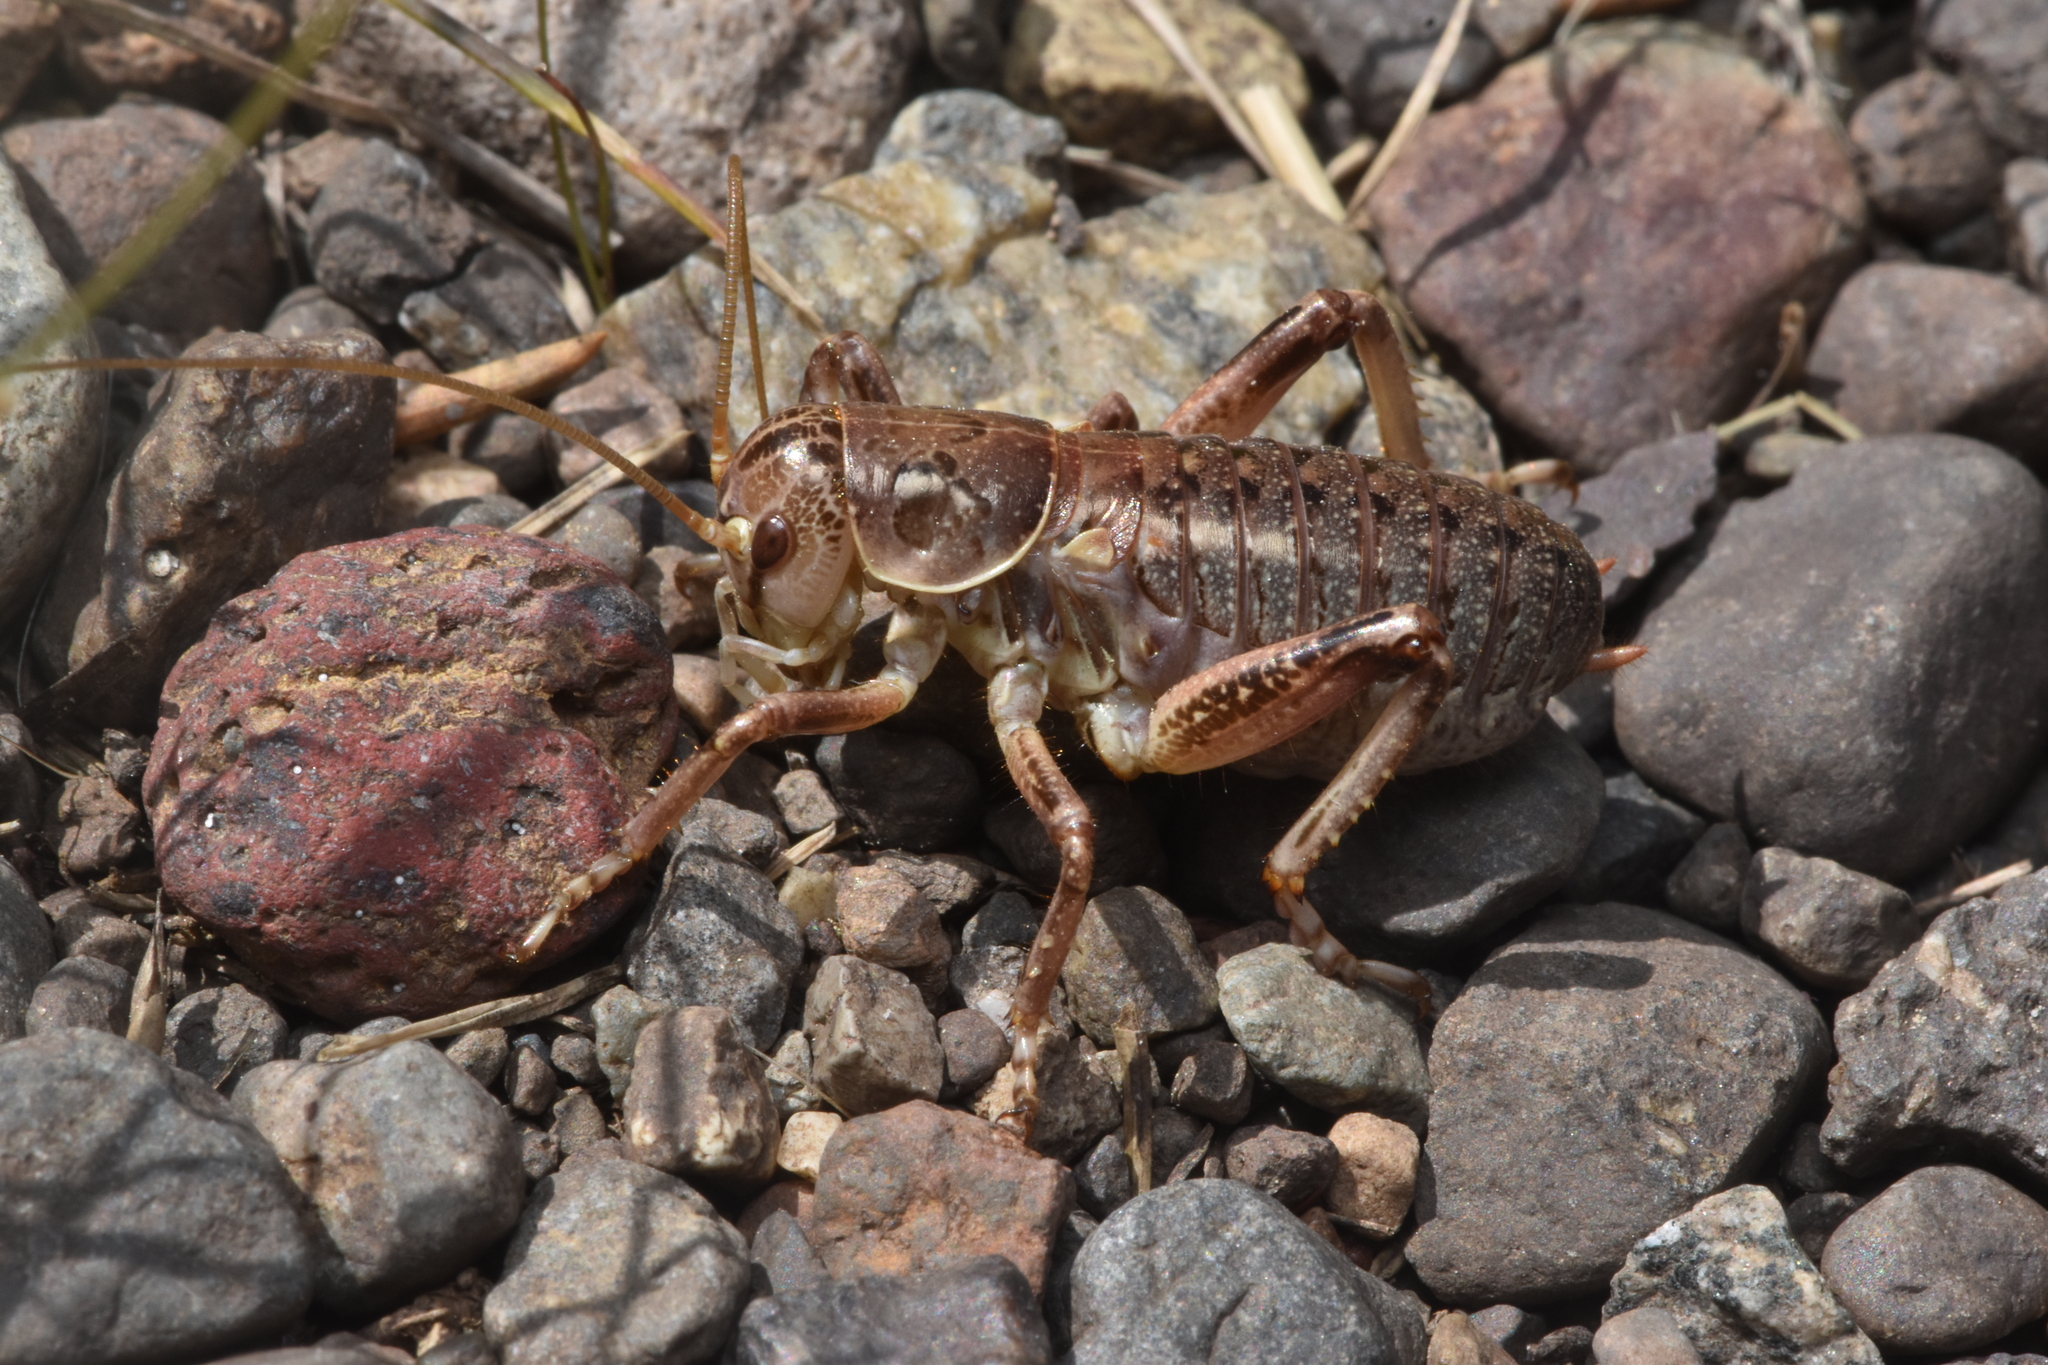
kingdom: Animalia
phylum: Arthropoda
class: Insecta
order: Orthoptera
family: Prophalangopsidae
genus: Cyphoderris
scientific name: Cyphoderris monstrosa
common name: Great grig
